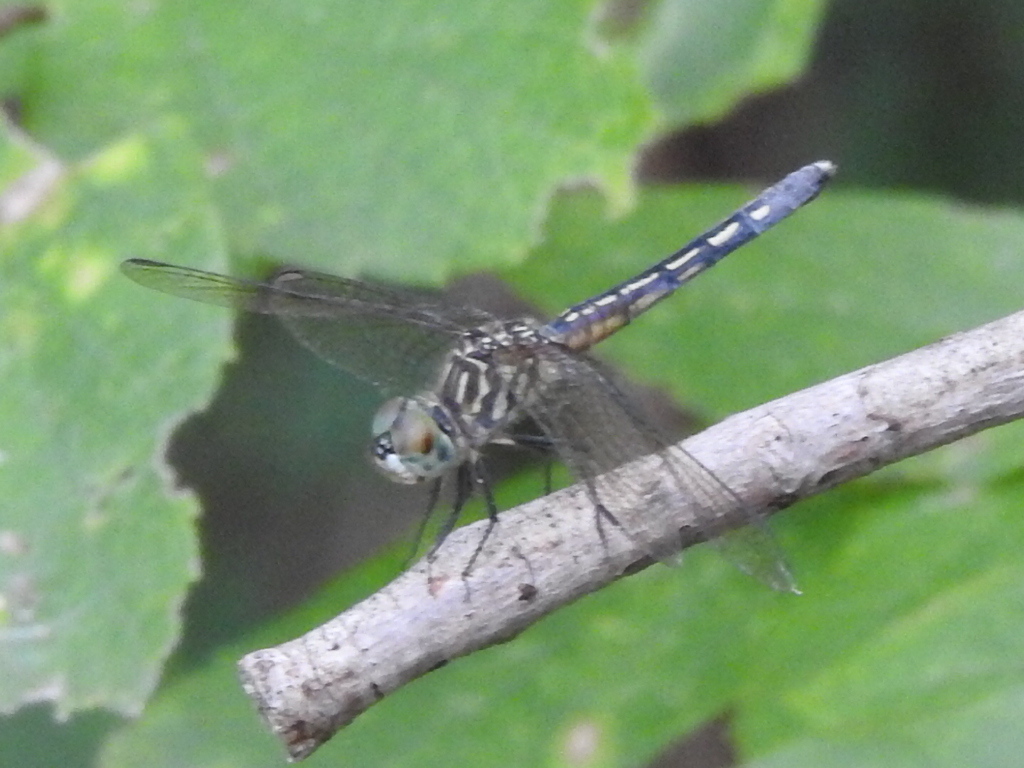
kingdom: Animalia
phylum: Arthropoda
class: Insecta
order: Odonata
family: Libellulidae
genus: Pachydiplax
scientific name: Pachydiplax longipennis
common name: Blue dasher
